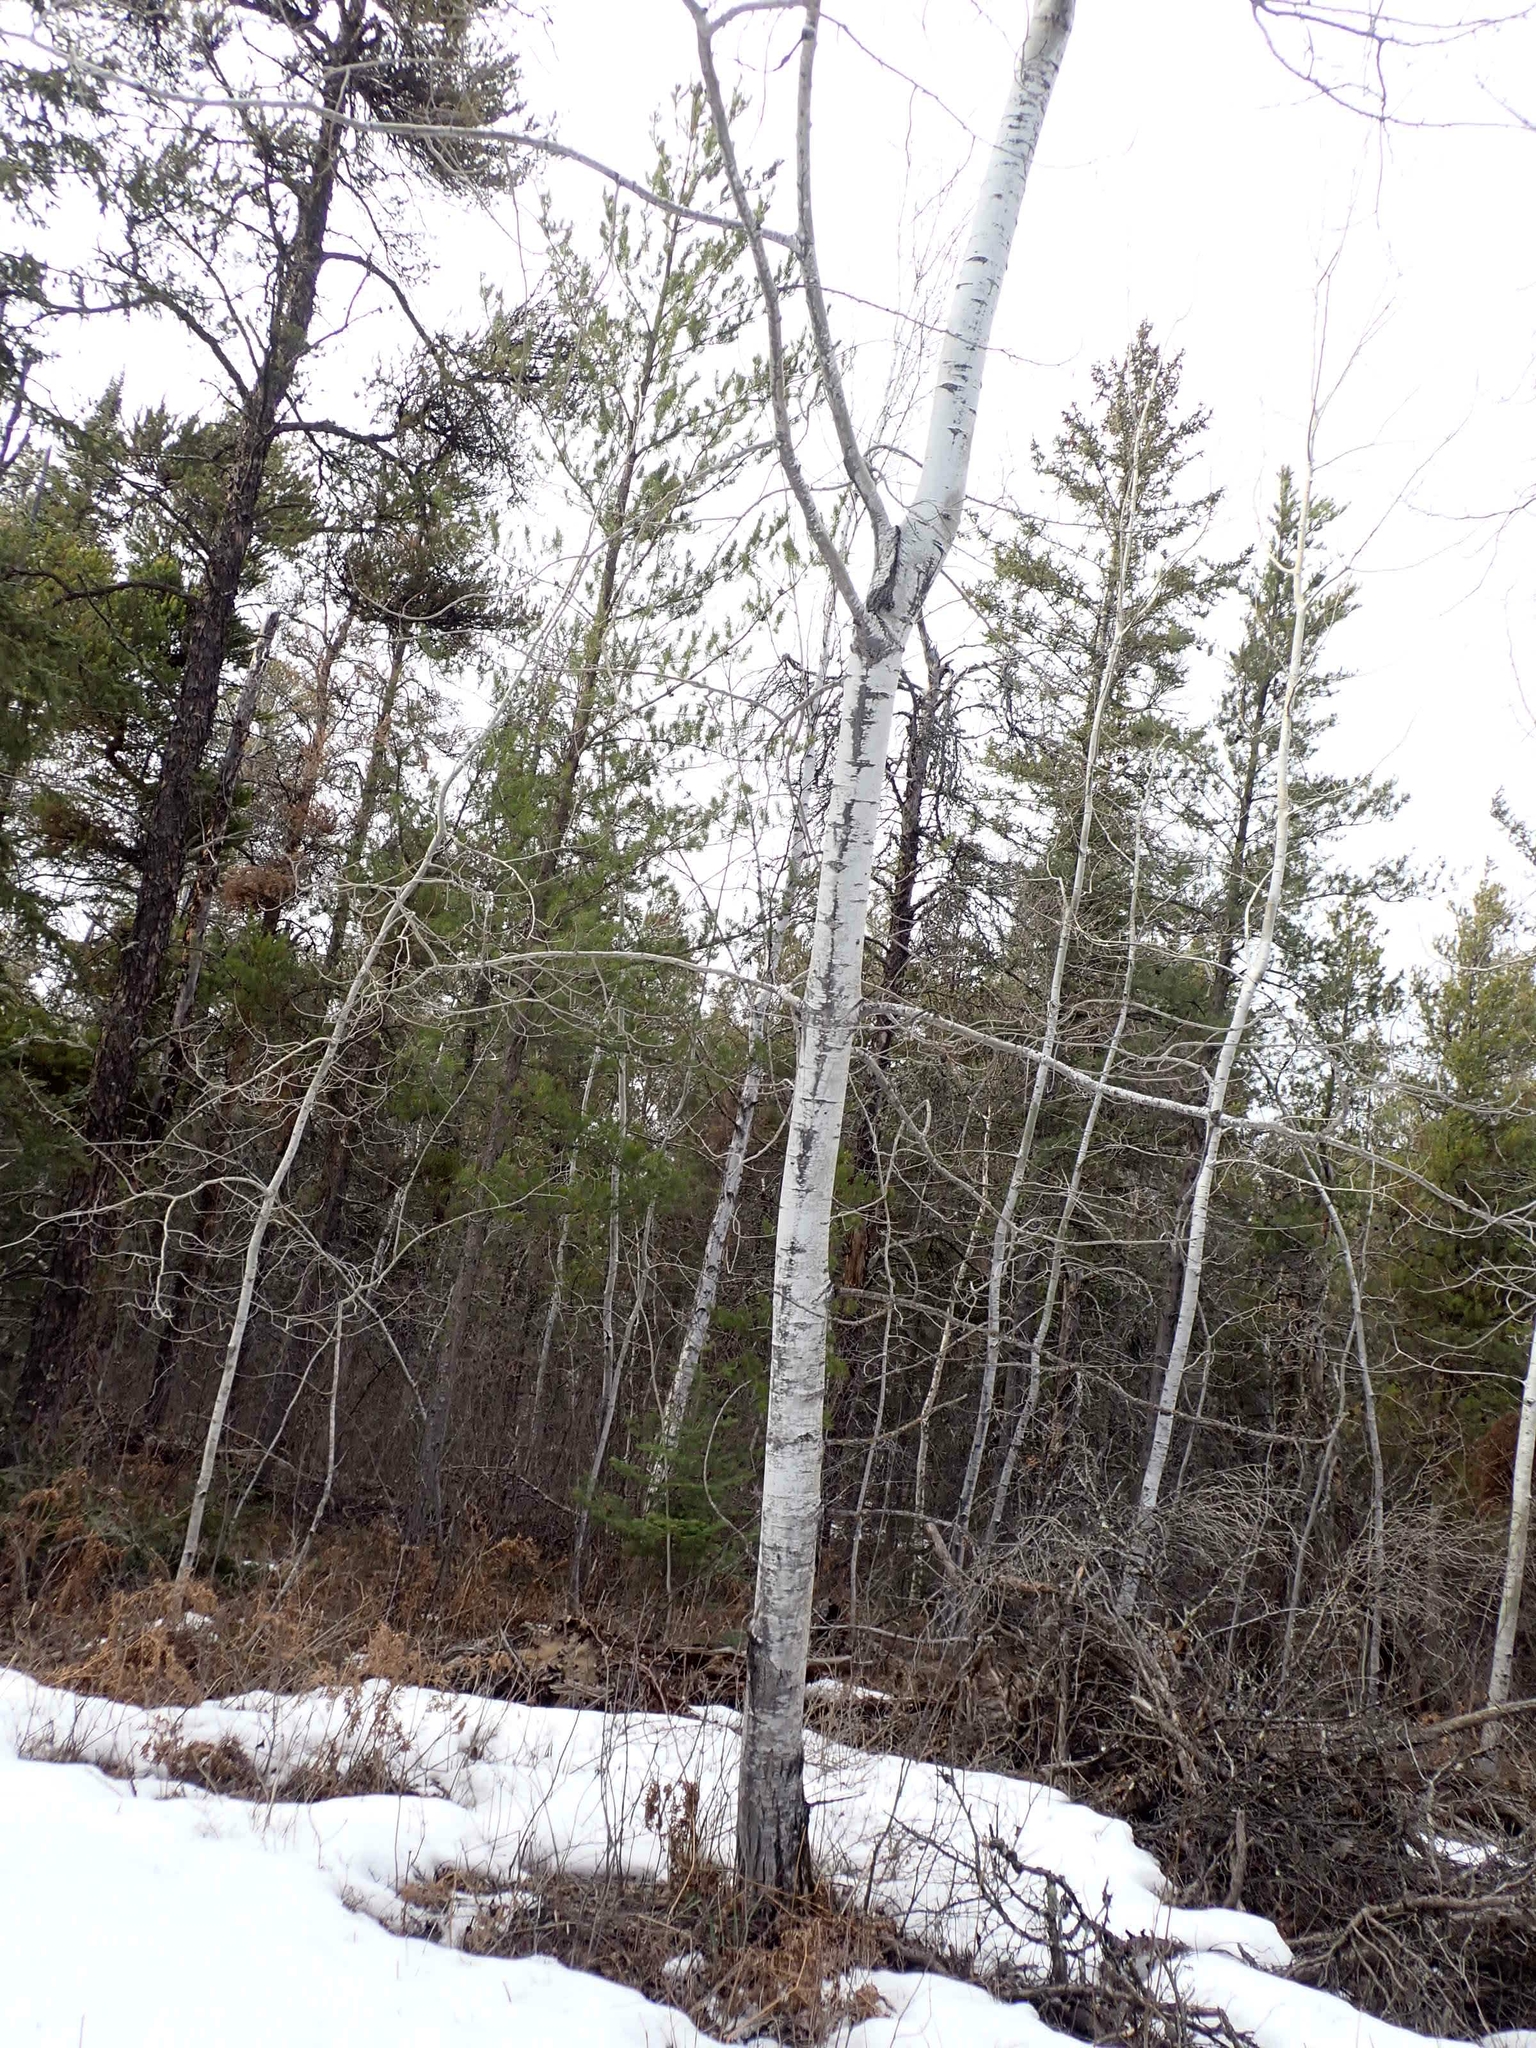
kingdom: Plantae
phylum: Tracheophyta
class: Magnoliopsida
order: Malpighiales
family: Salicaceae
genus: Populus
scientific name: Populus tremuloides
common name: Quaking aspen
